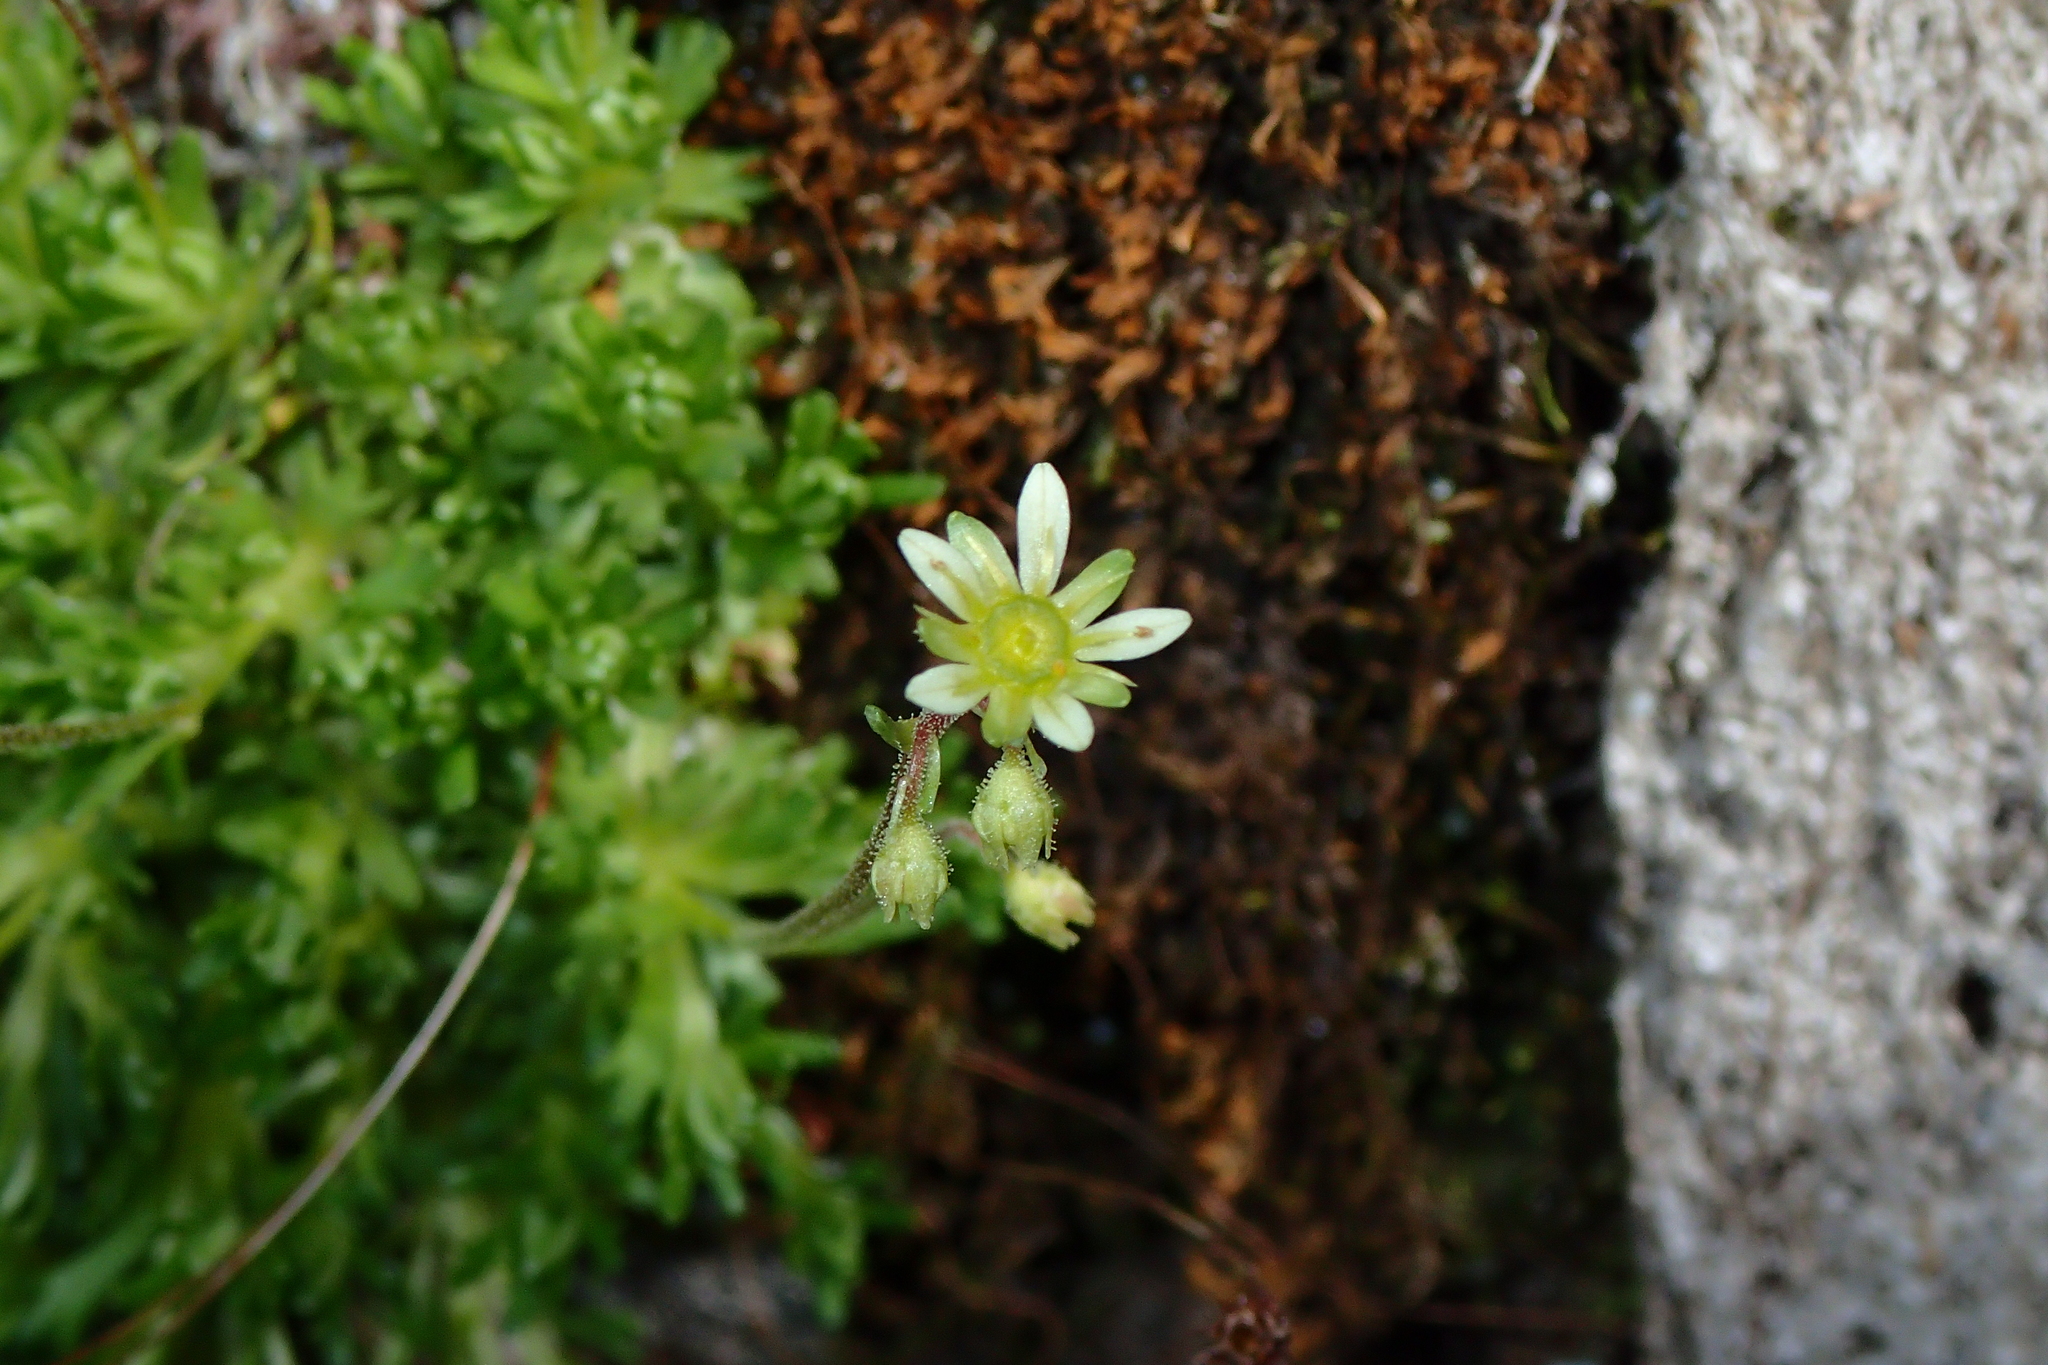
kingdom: Plantae
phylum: Tracheophyta
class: Magnoliopsida
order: Saxifragales
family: Saxifragaceae
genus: Saxifraga
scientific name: Saxifraga moschata
